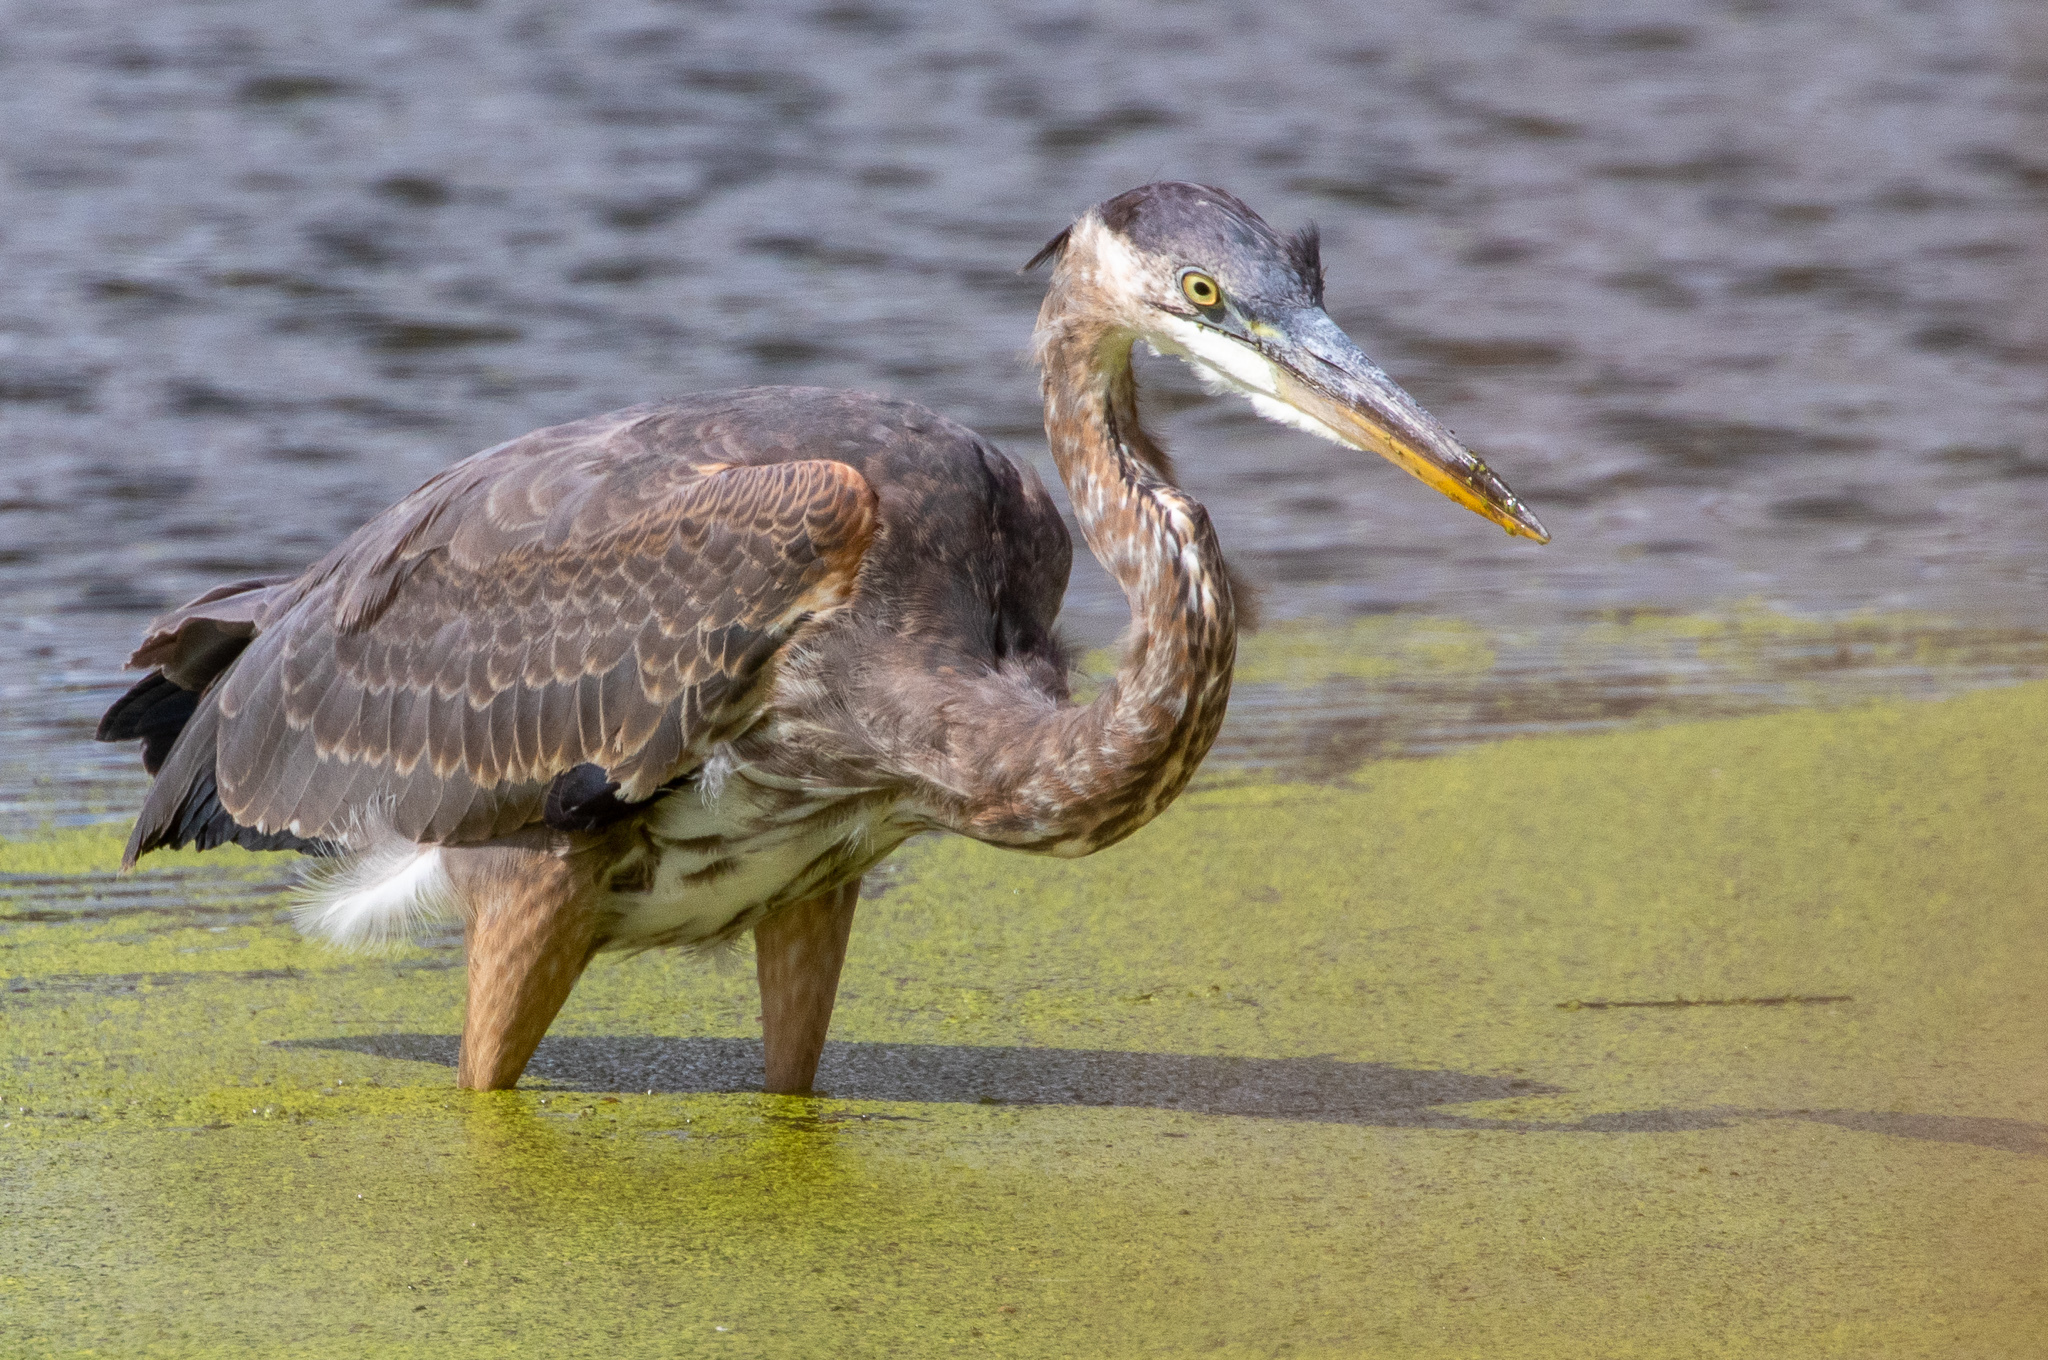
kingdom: Animalia
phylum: Chordata
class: Aves
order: Pelecaniformes
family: Ardeidae
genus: Ardea
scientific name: Ardea herodias
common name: Great blue heron
